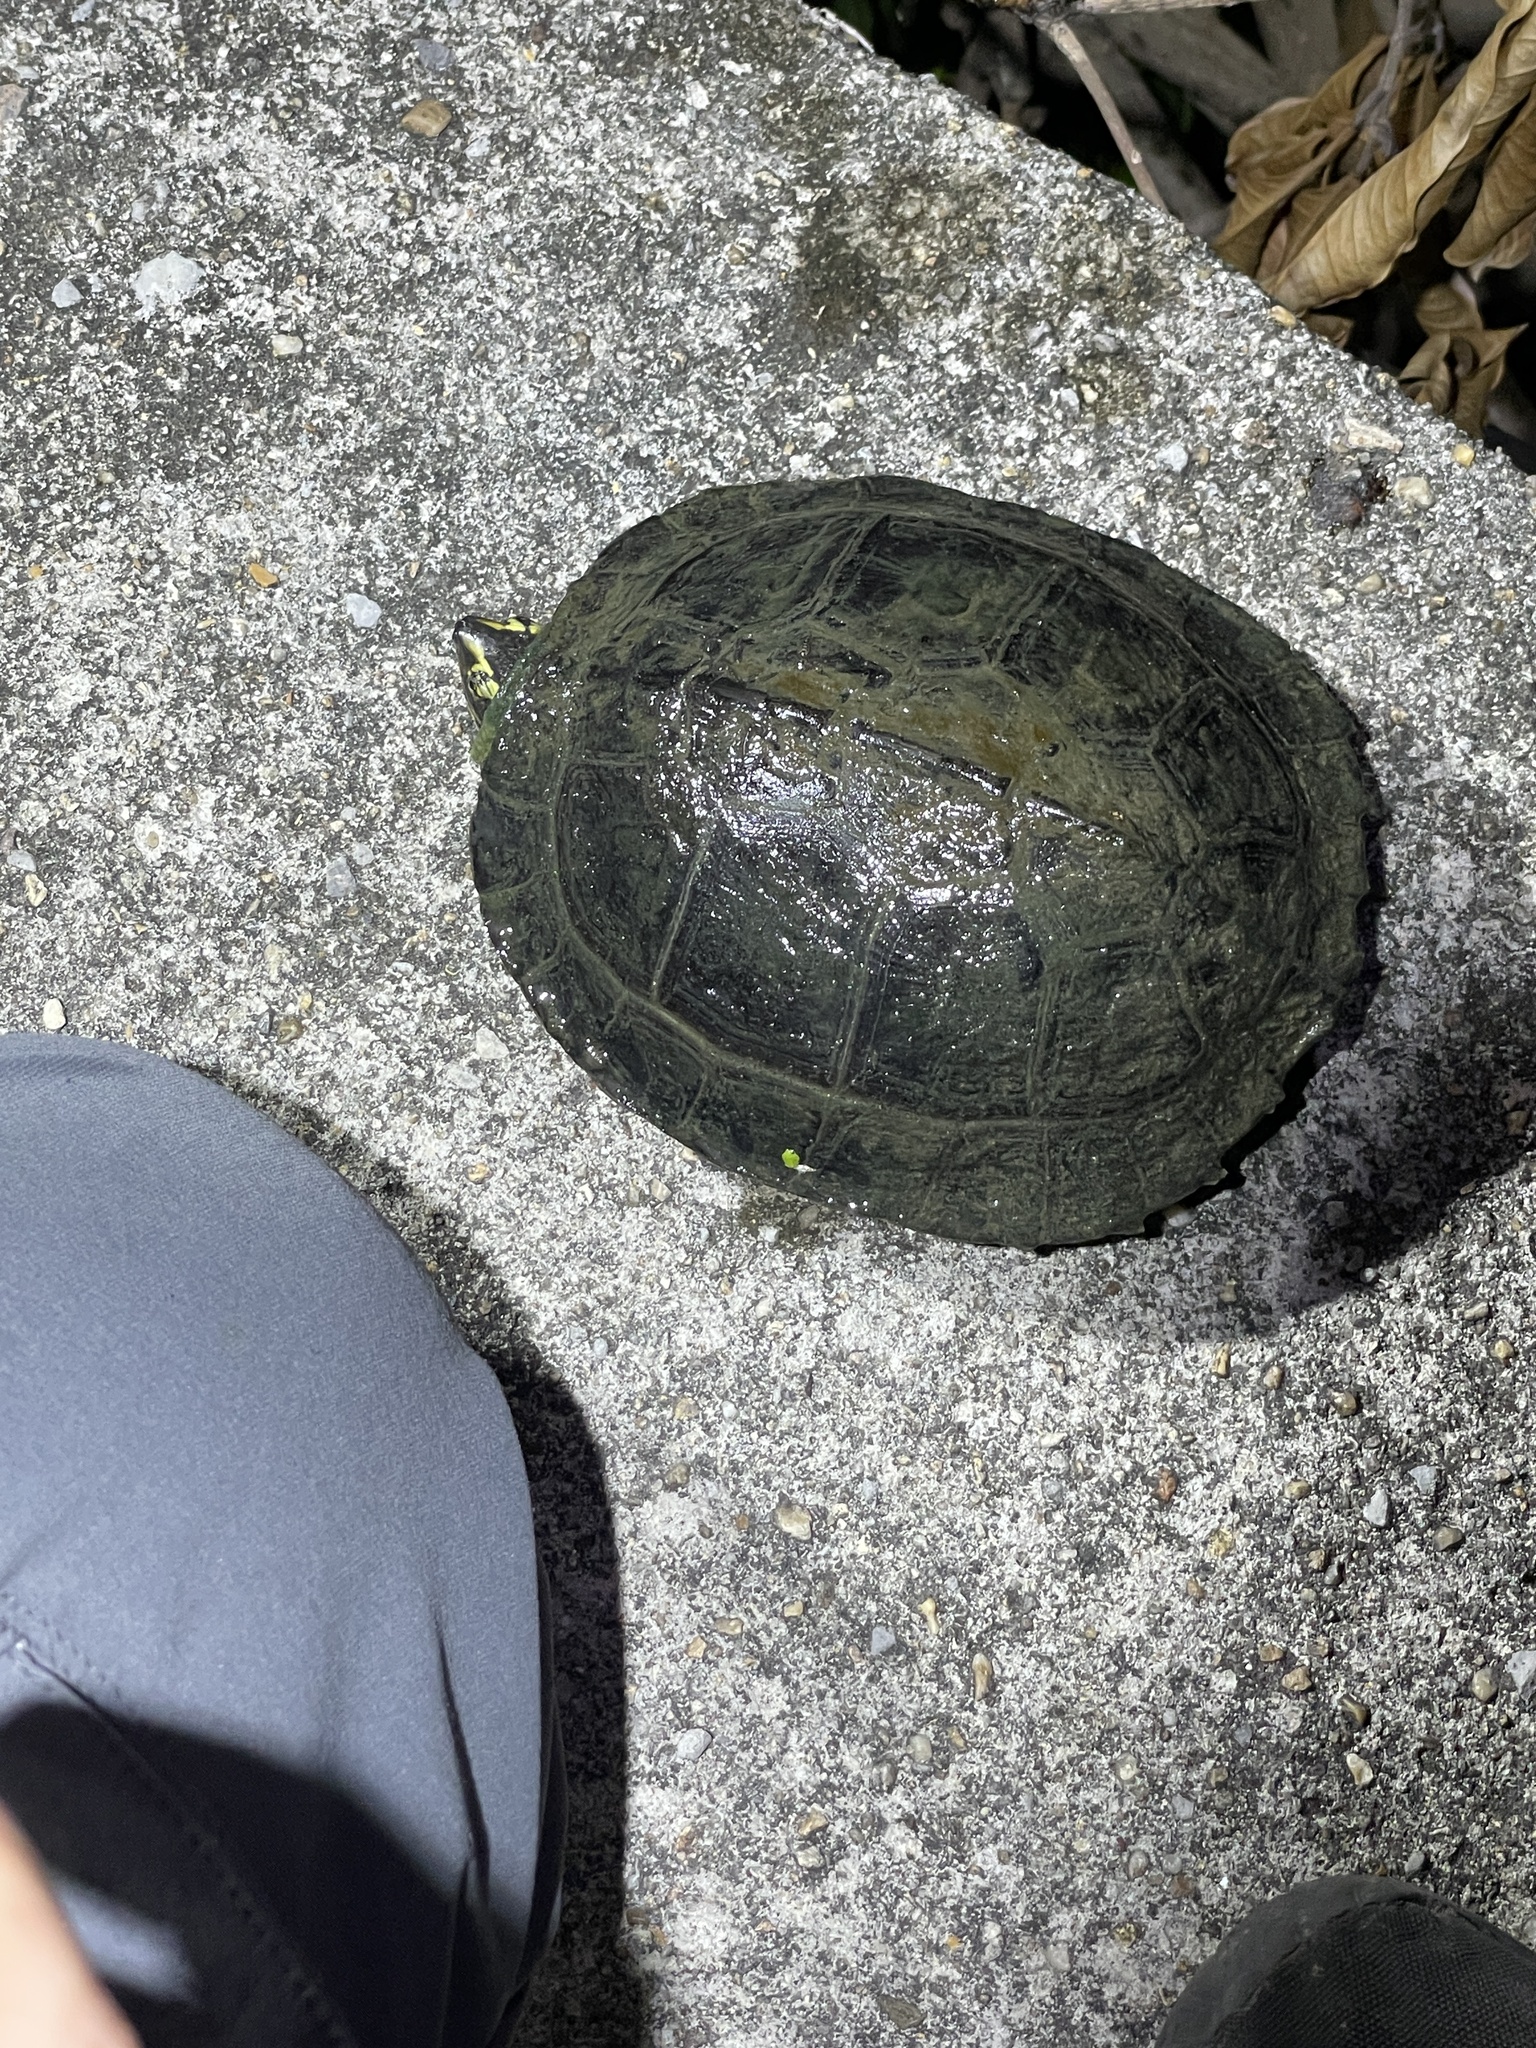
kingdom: Animalia
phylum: Chordata
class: Testudines
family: Geoemydidae
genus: Heosemys
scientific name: Heosemys annandalii
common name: Yellow-headed temple turtle
